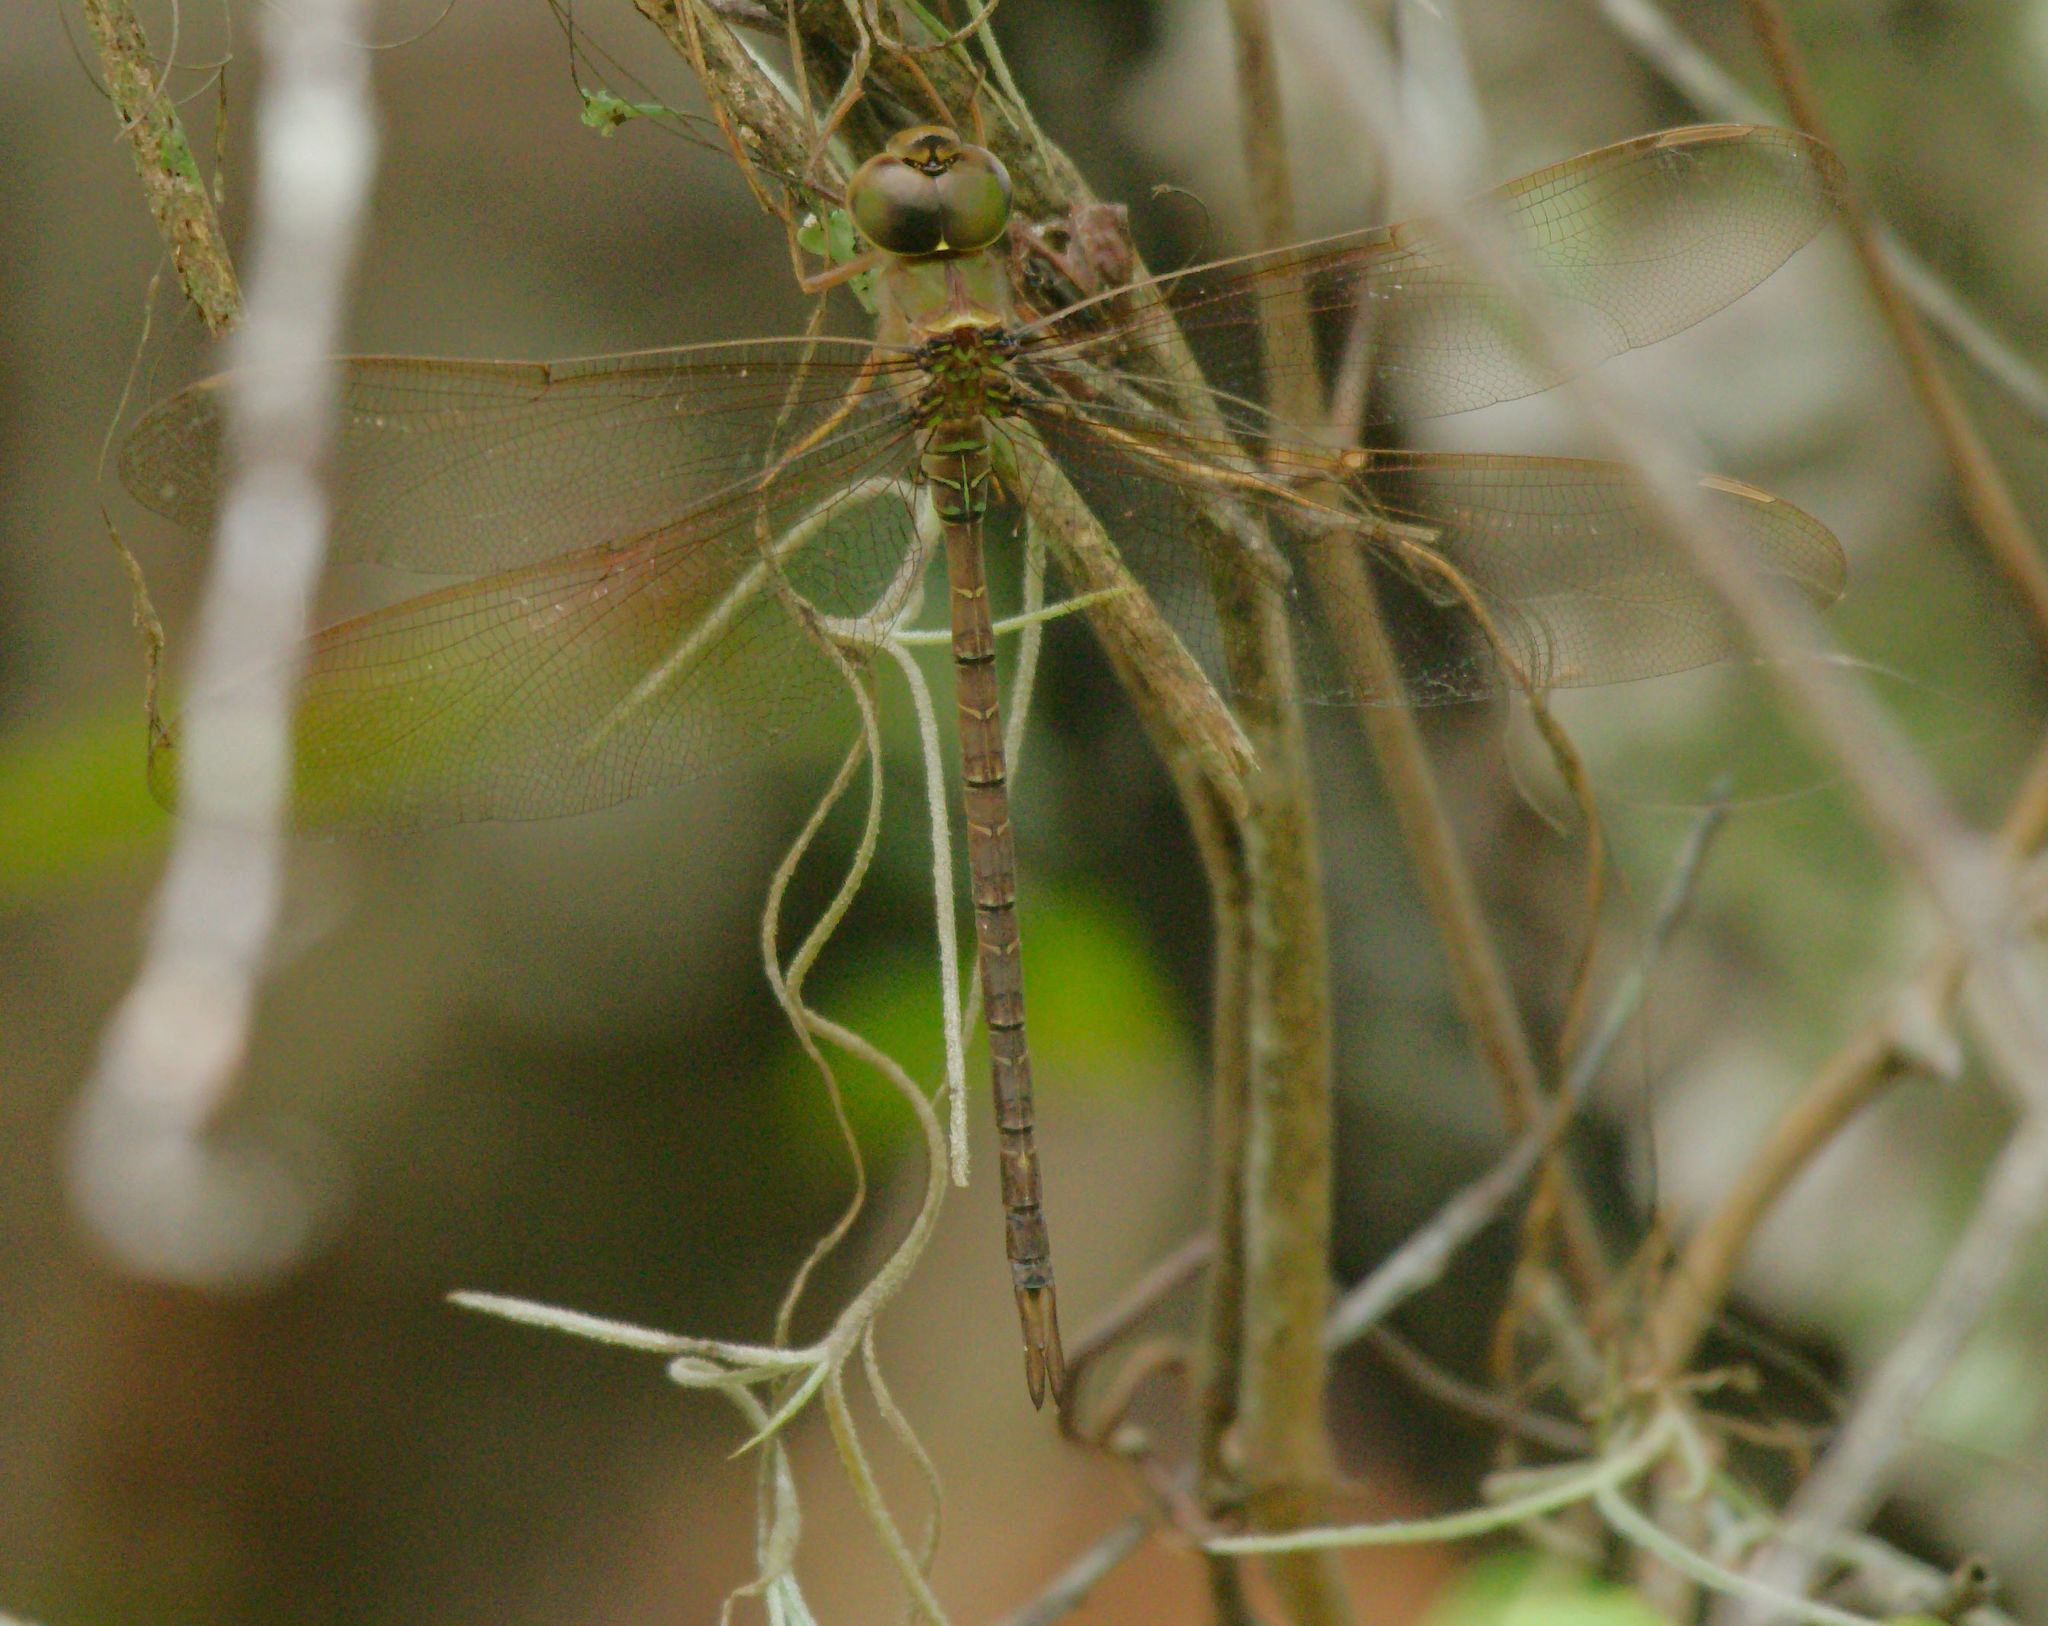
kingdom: Animalia
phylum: Arthropoda
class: Insecta
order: Odonata
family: Aeshnidae
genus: Gynacantha
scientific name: Gynacantha nervosa
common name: Twilight darner
